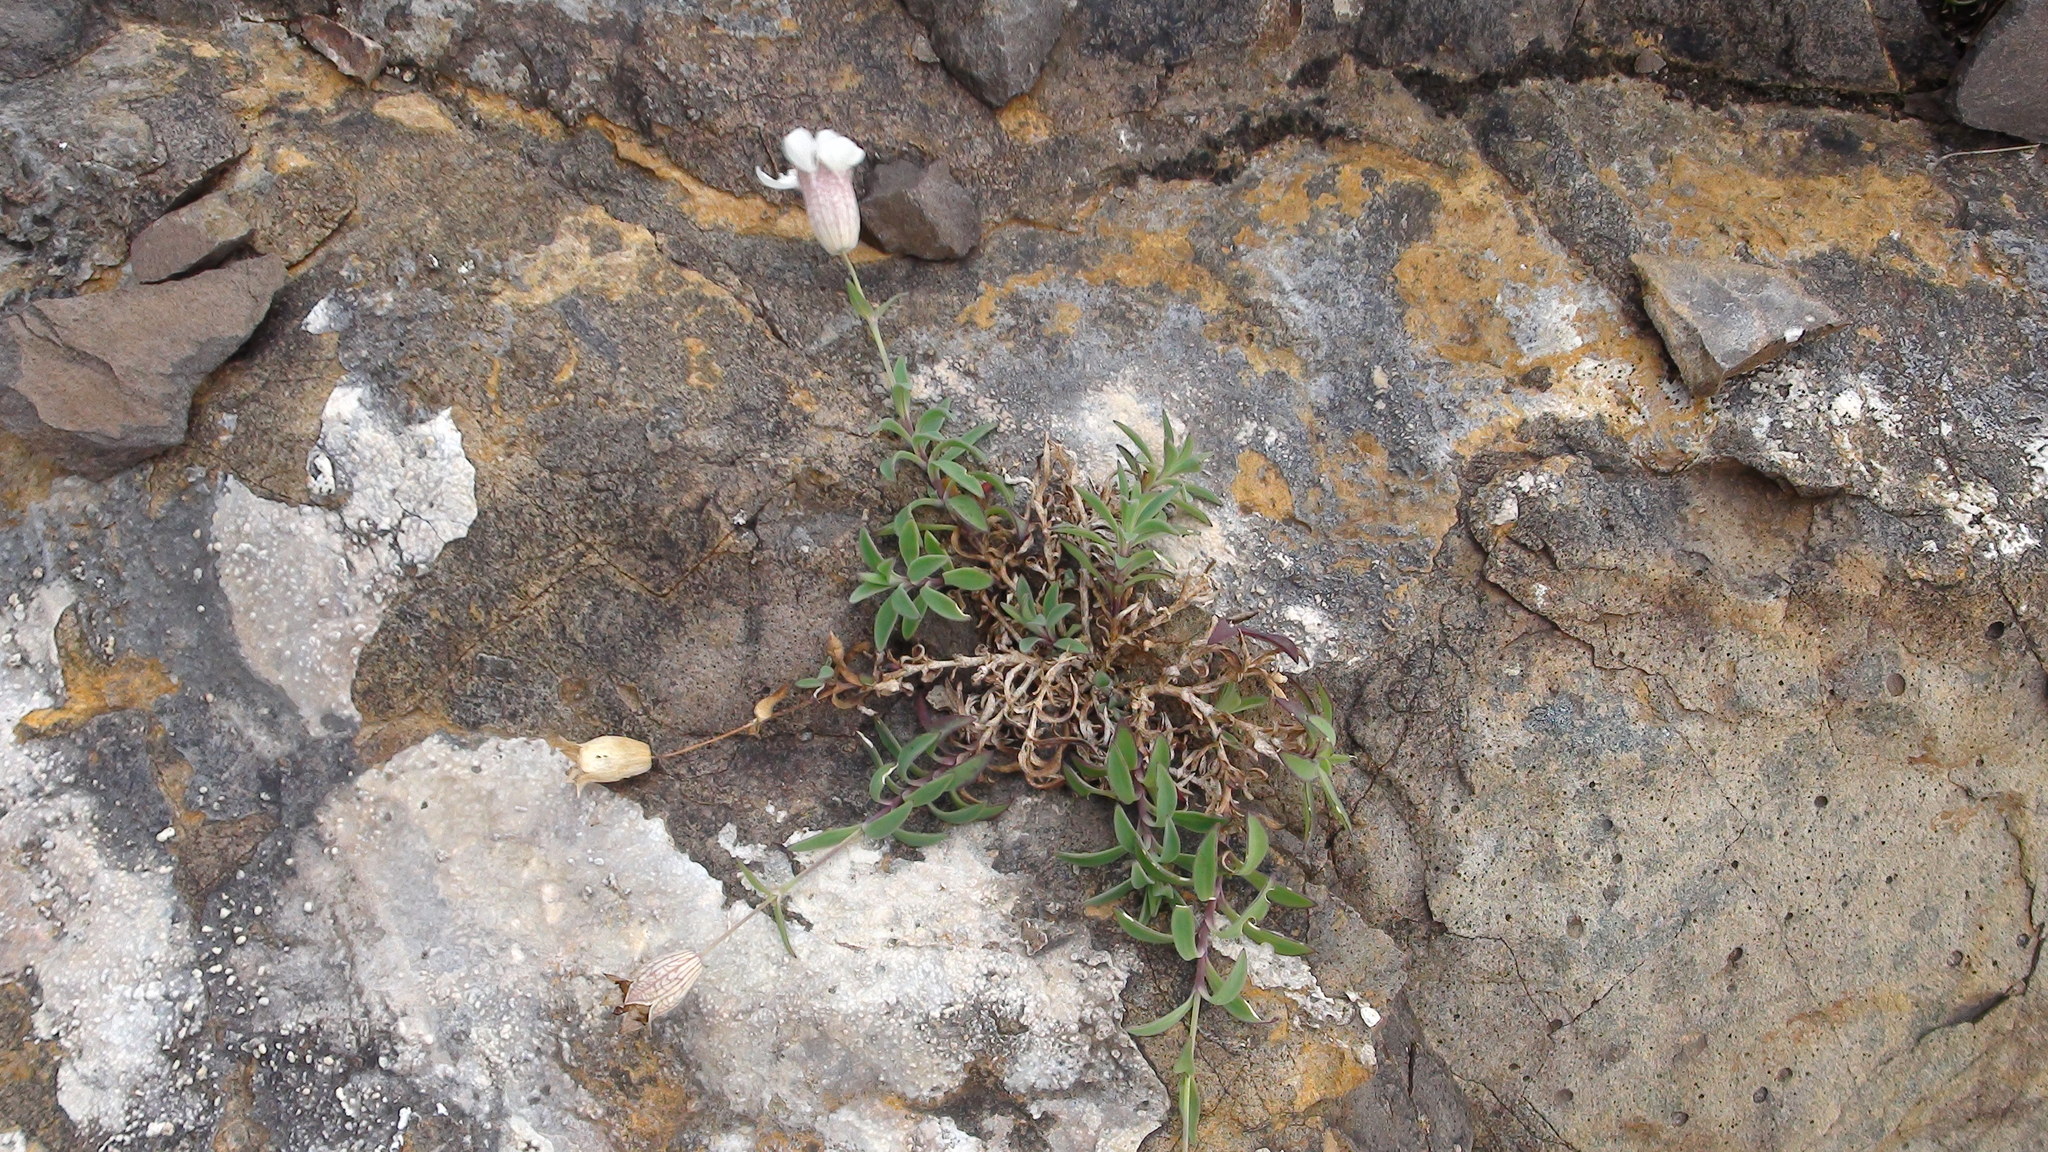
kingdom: Plantae
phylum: Tracheophyta
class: Magnoliopsida
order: Caryophyllales
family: Caryophyllaceae
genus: Silene
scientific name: Silene uniflora
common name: Sea campion
